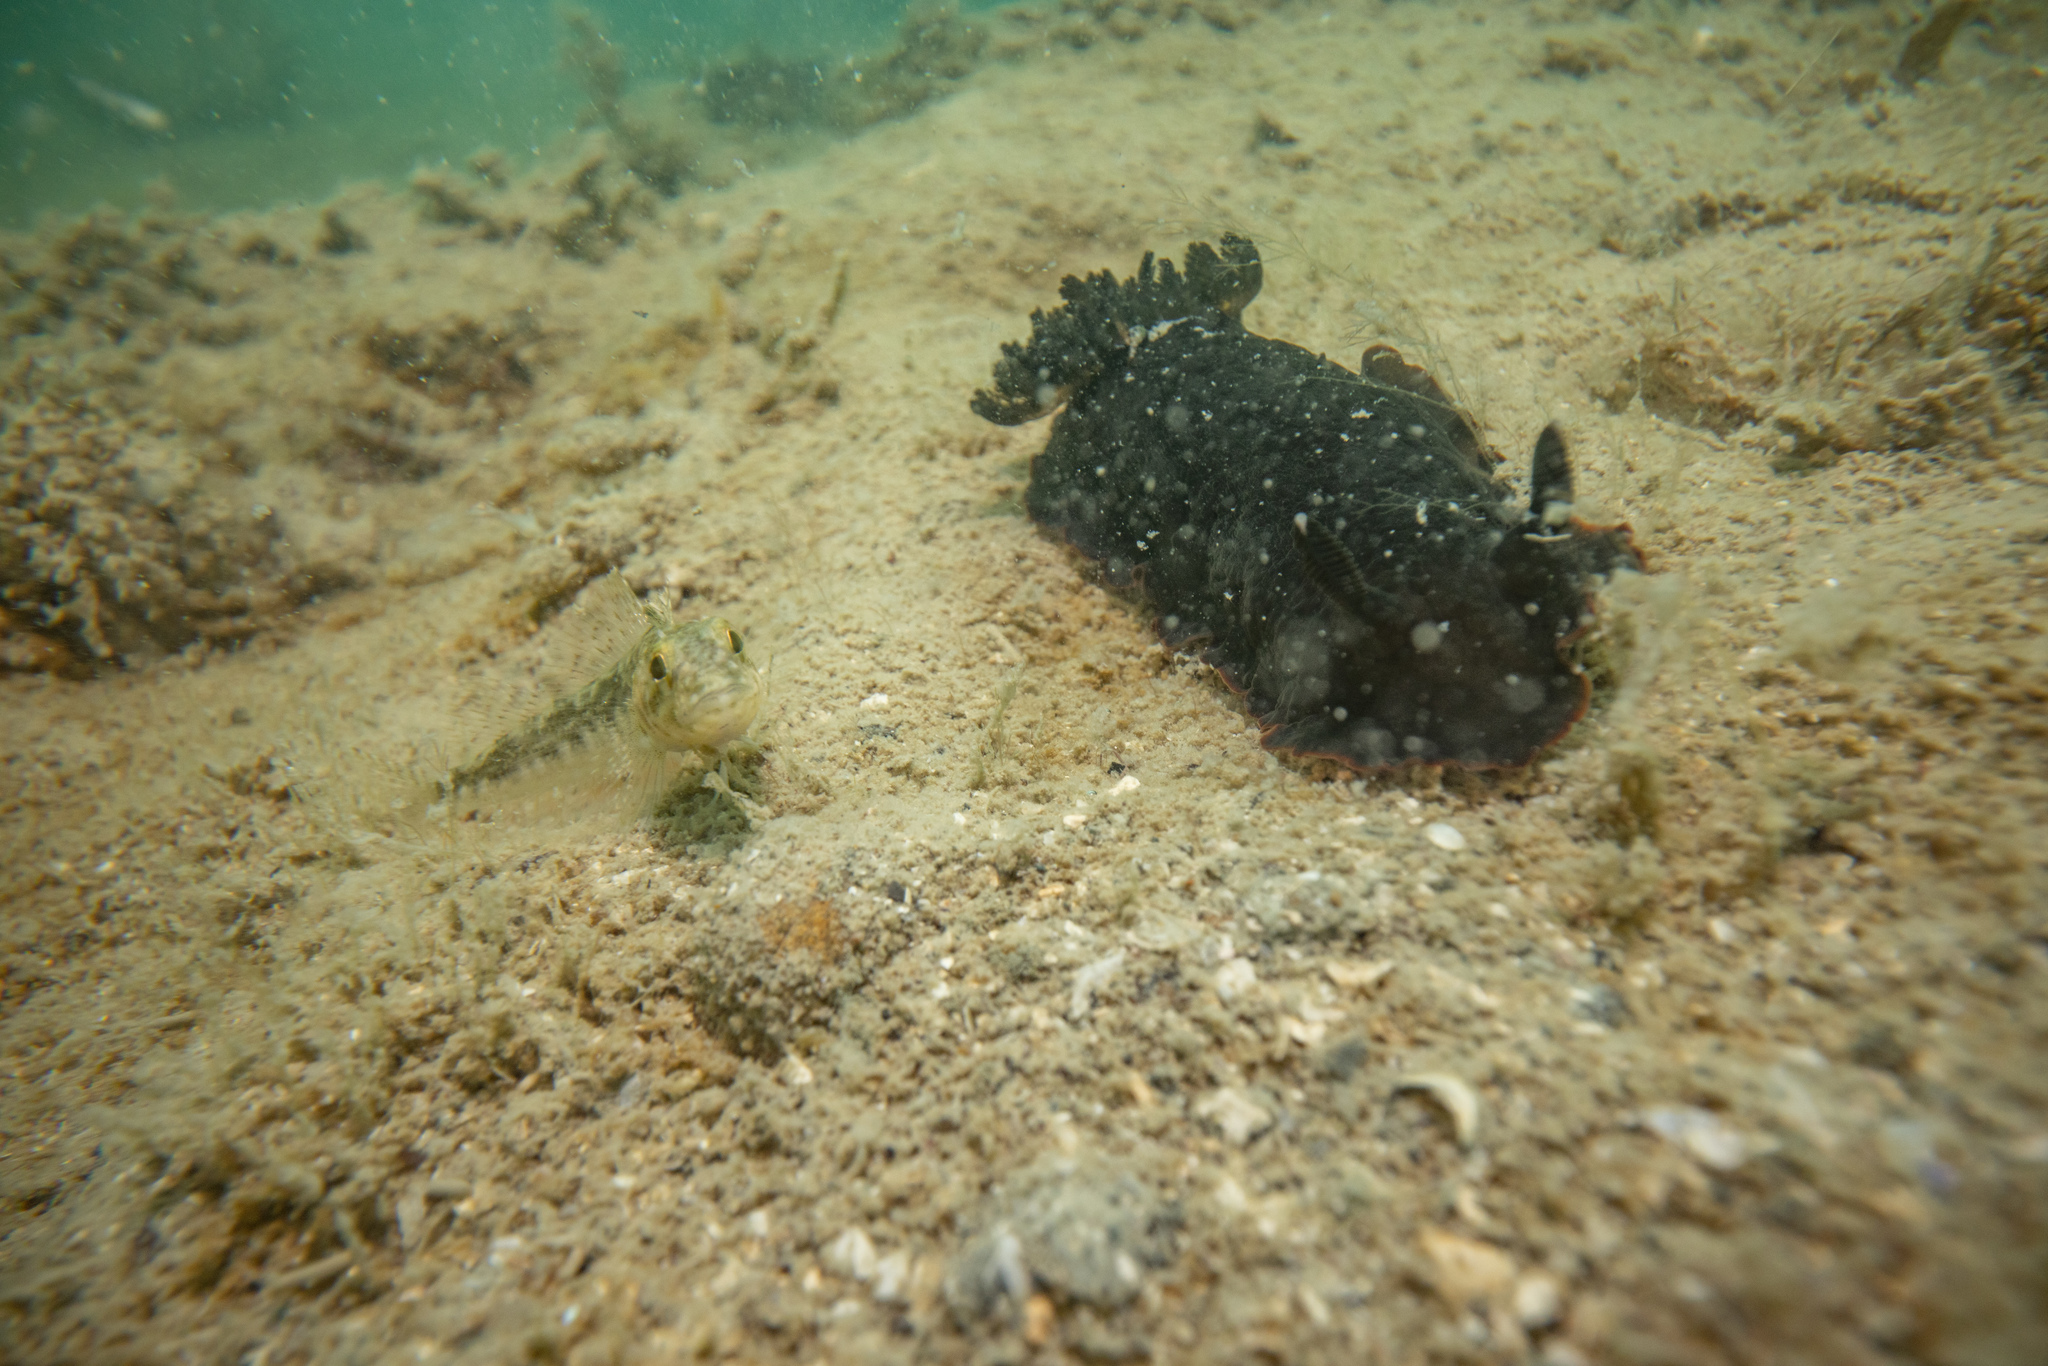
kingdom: Animalia
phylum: Mollusca
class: Gastropoda
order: Nudibranchia
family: Dendrodorididae
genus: Dendrodoris
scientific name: Dendrodoris nigra
